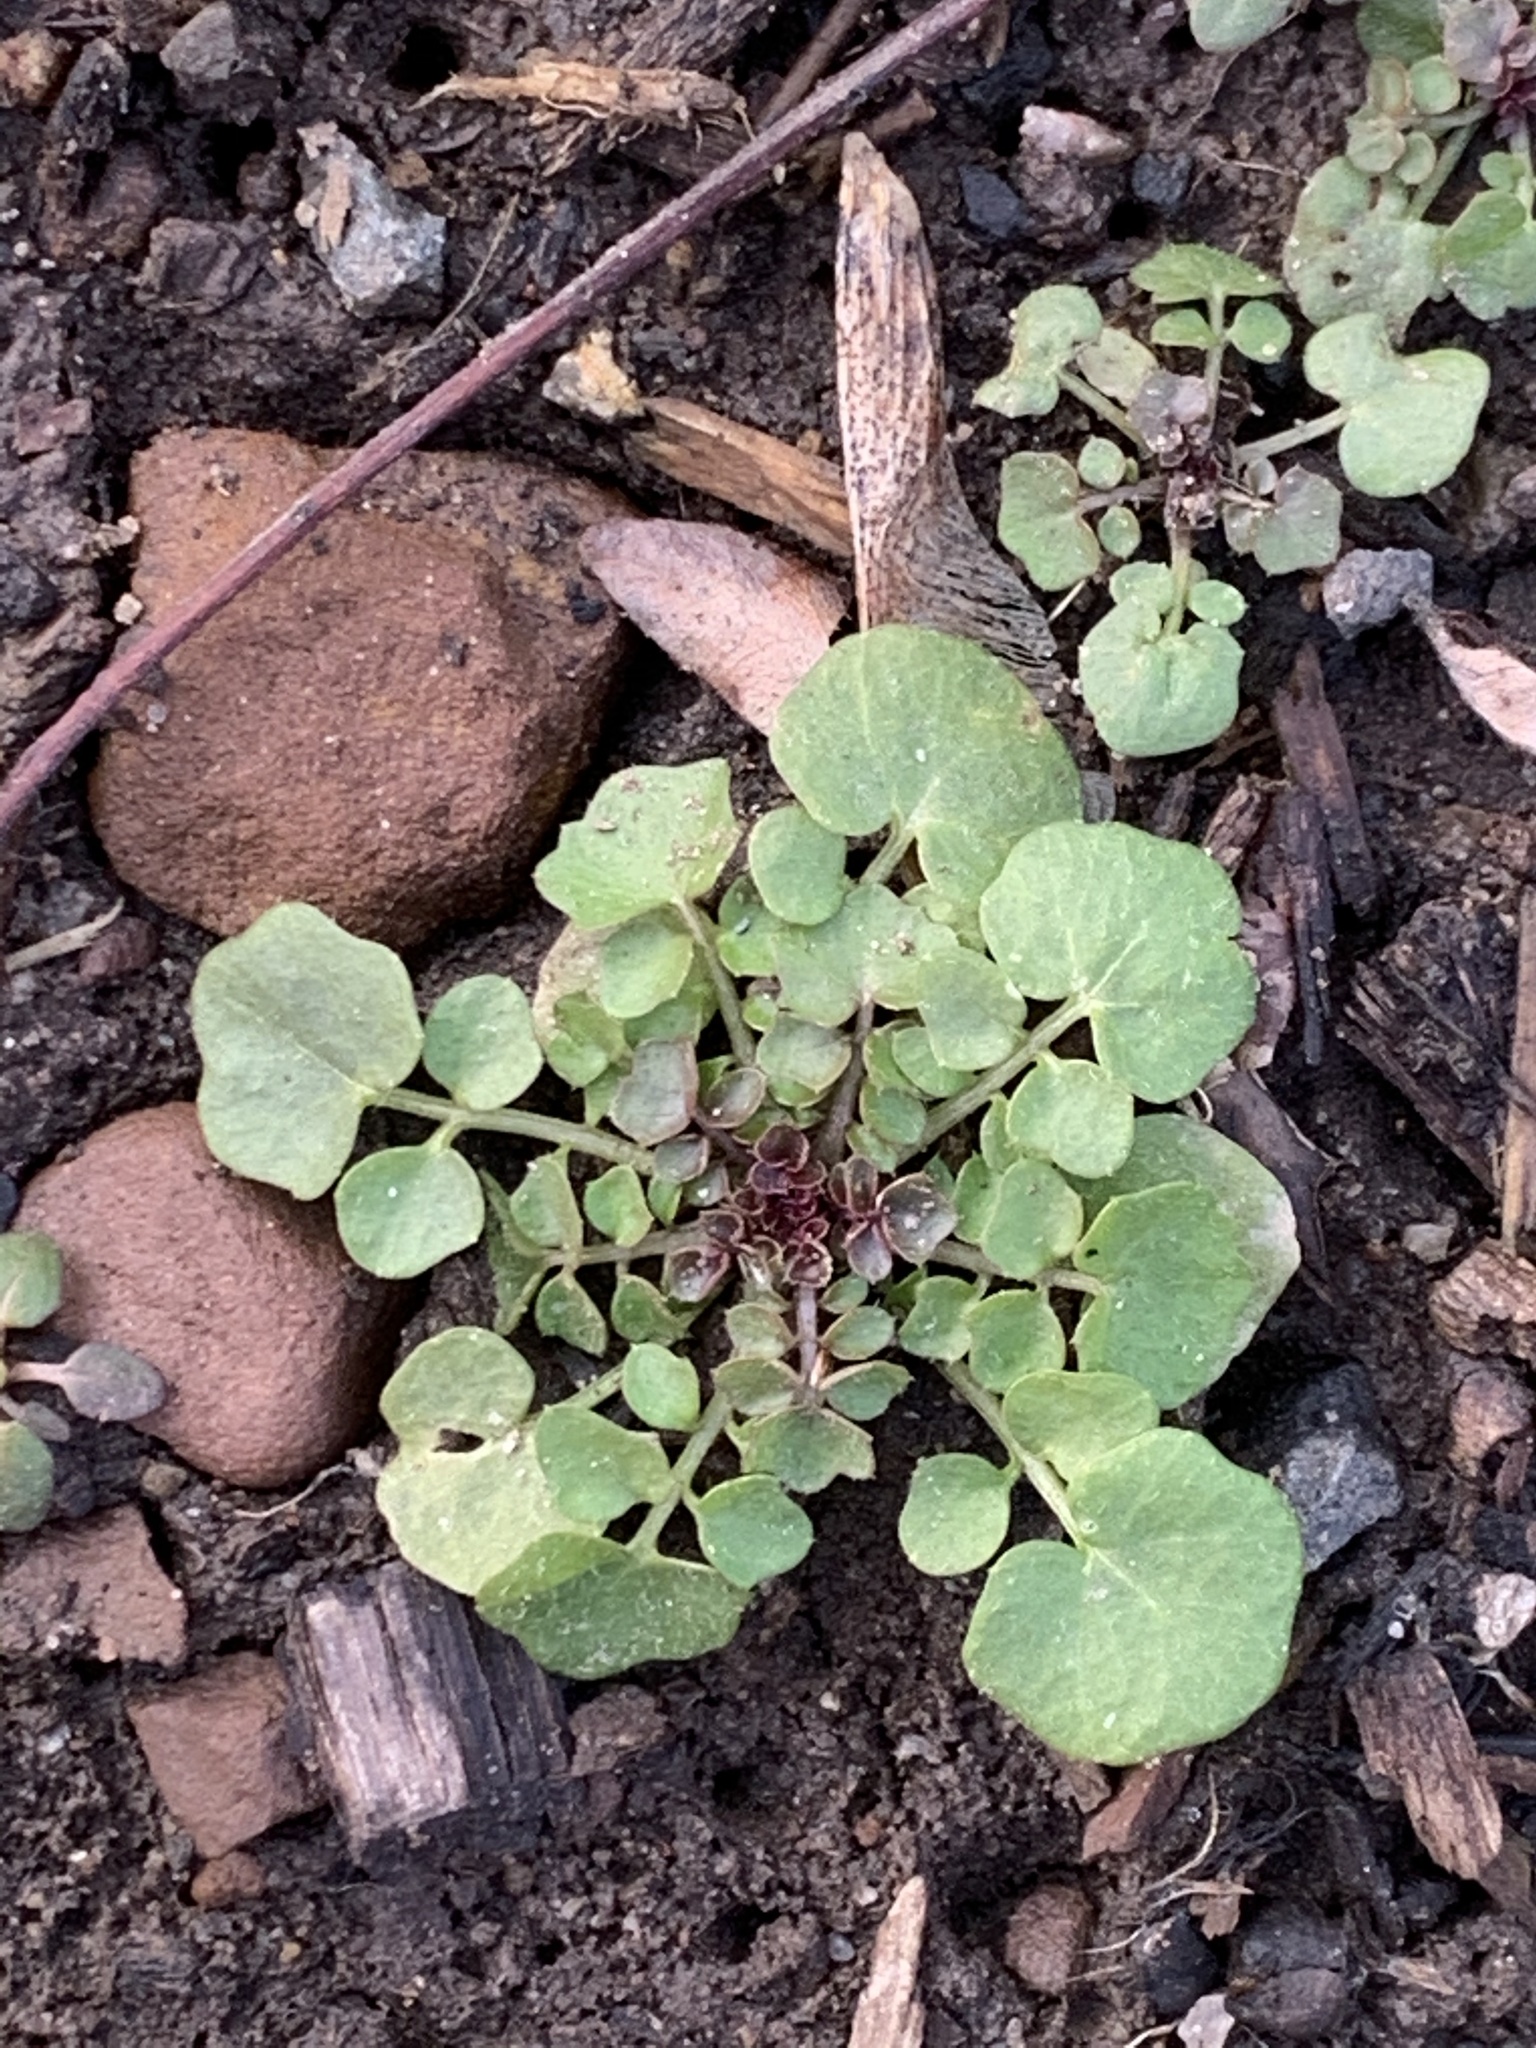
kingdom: Plantae
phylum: Tracheophyta
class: Magnoliopsida
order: Brassicales
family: Brassicaceae
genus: Cardamine
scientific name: Cardamine hirsuta
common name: Hairy bittercress
